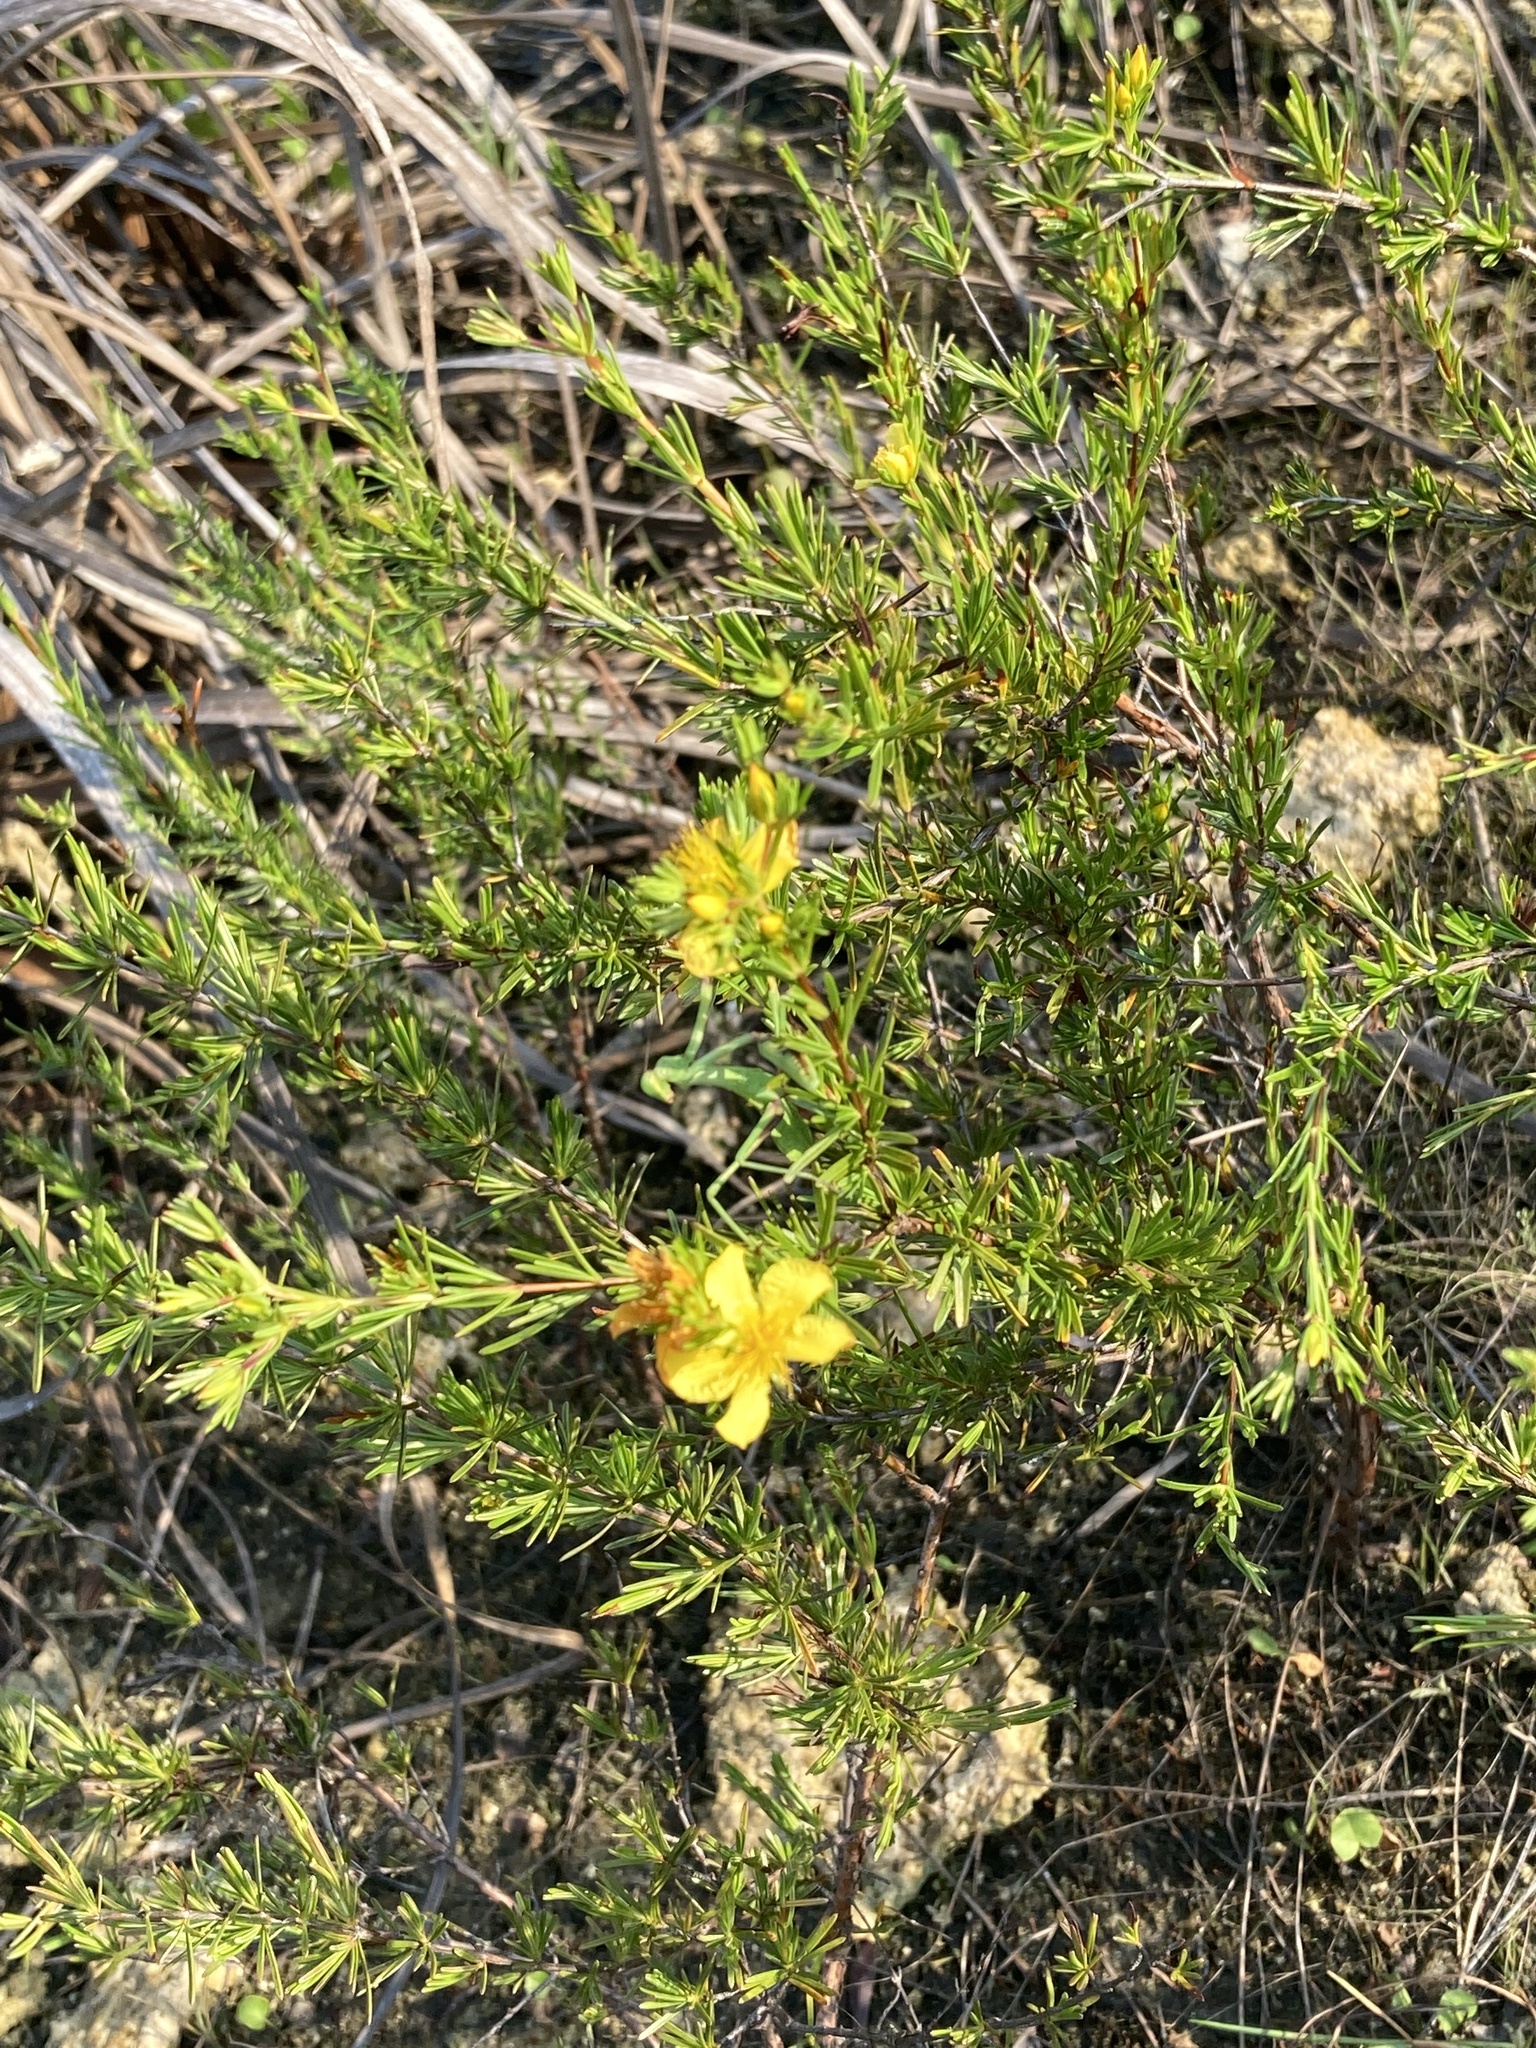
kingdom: Plantae
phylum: Tracheophyta
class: Magnoliopsida
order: Malpighiales
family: Hypericaceae
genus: Hypericum
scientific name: Hypericum fasciculatum
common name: Peelbark st. john's wort
